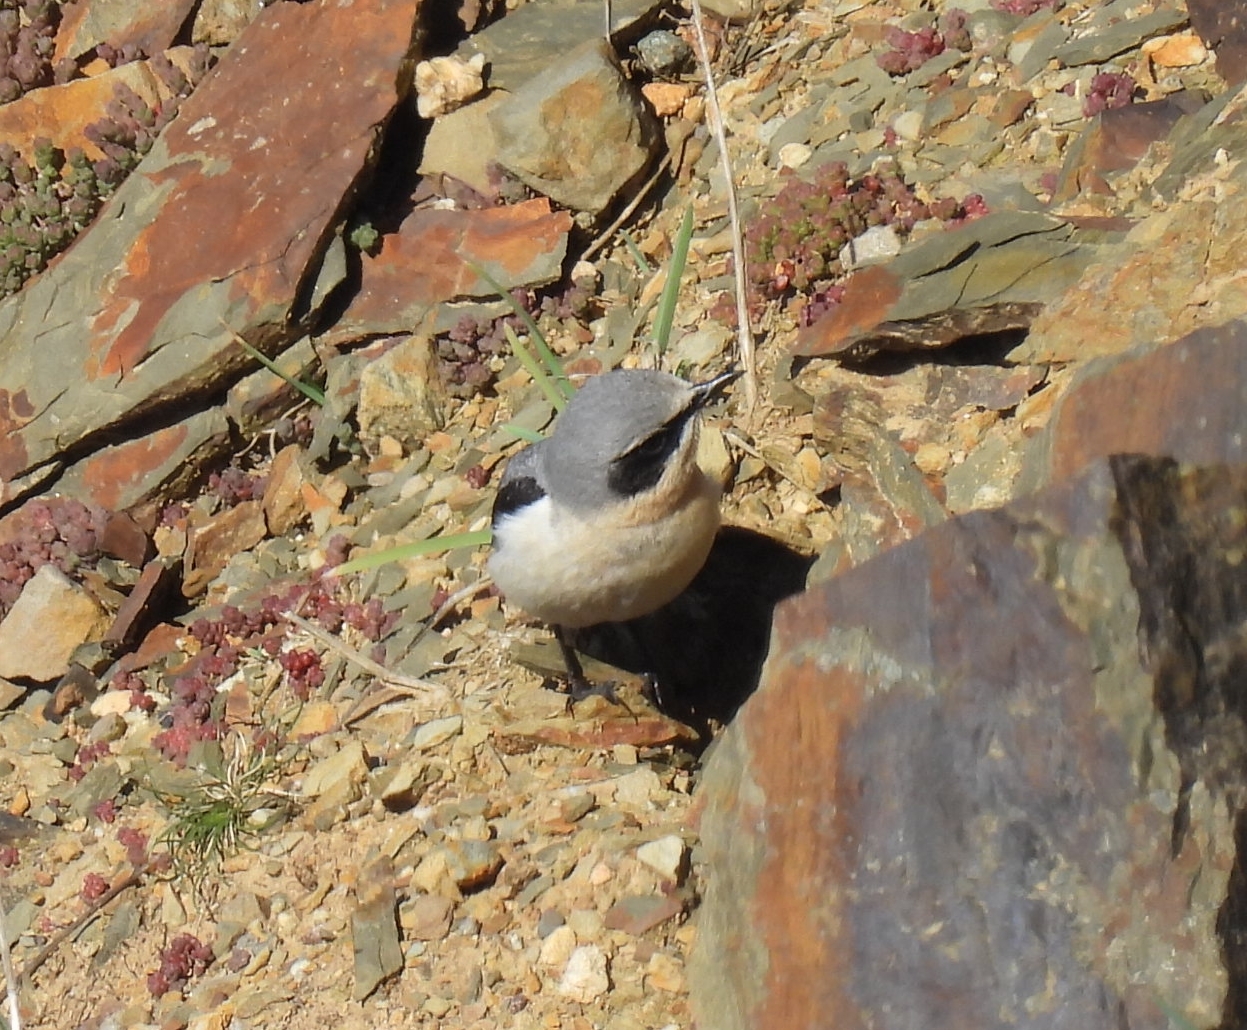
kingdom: Animalia
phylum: Chordata
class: Aves
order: Passeriformes
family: Muscicapidae
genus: Oenanthe
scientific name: Oenanthe oenanthe
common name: Northern wheatear
